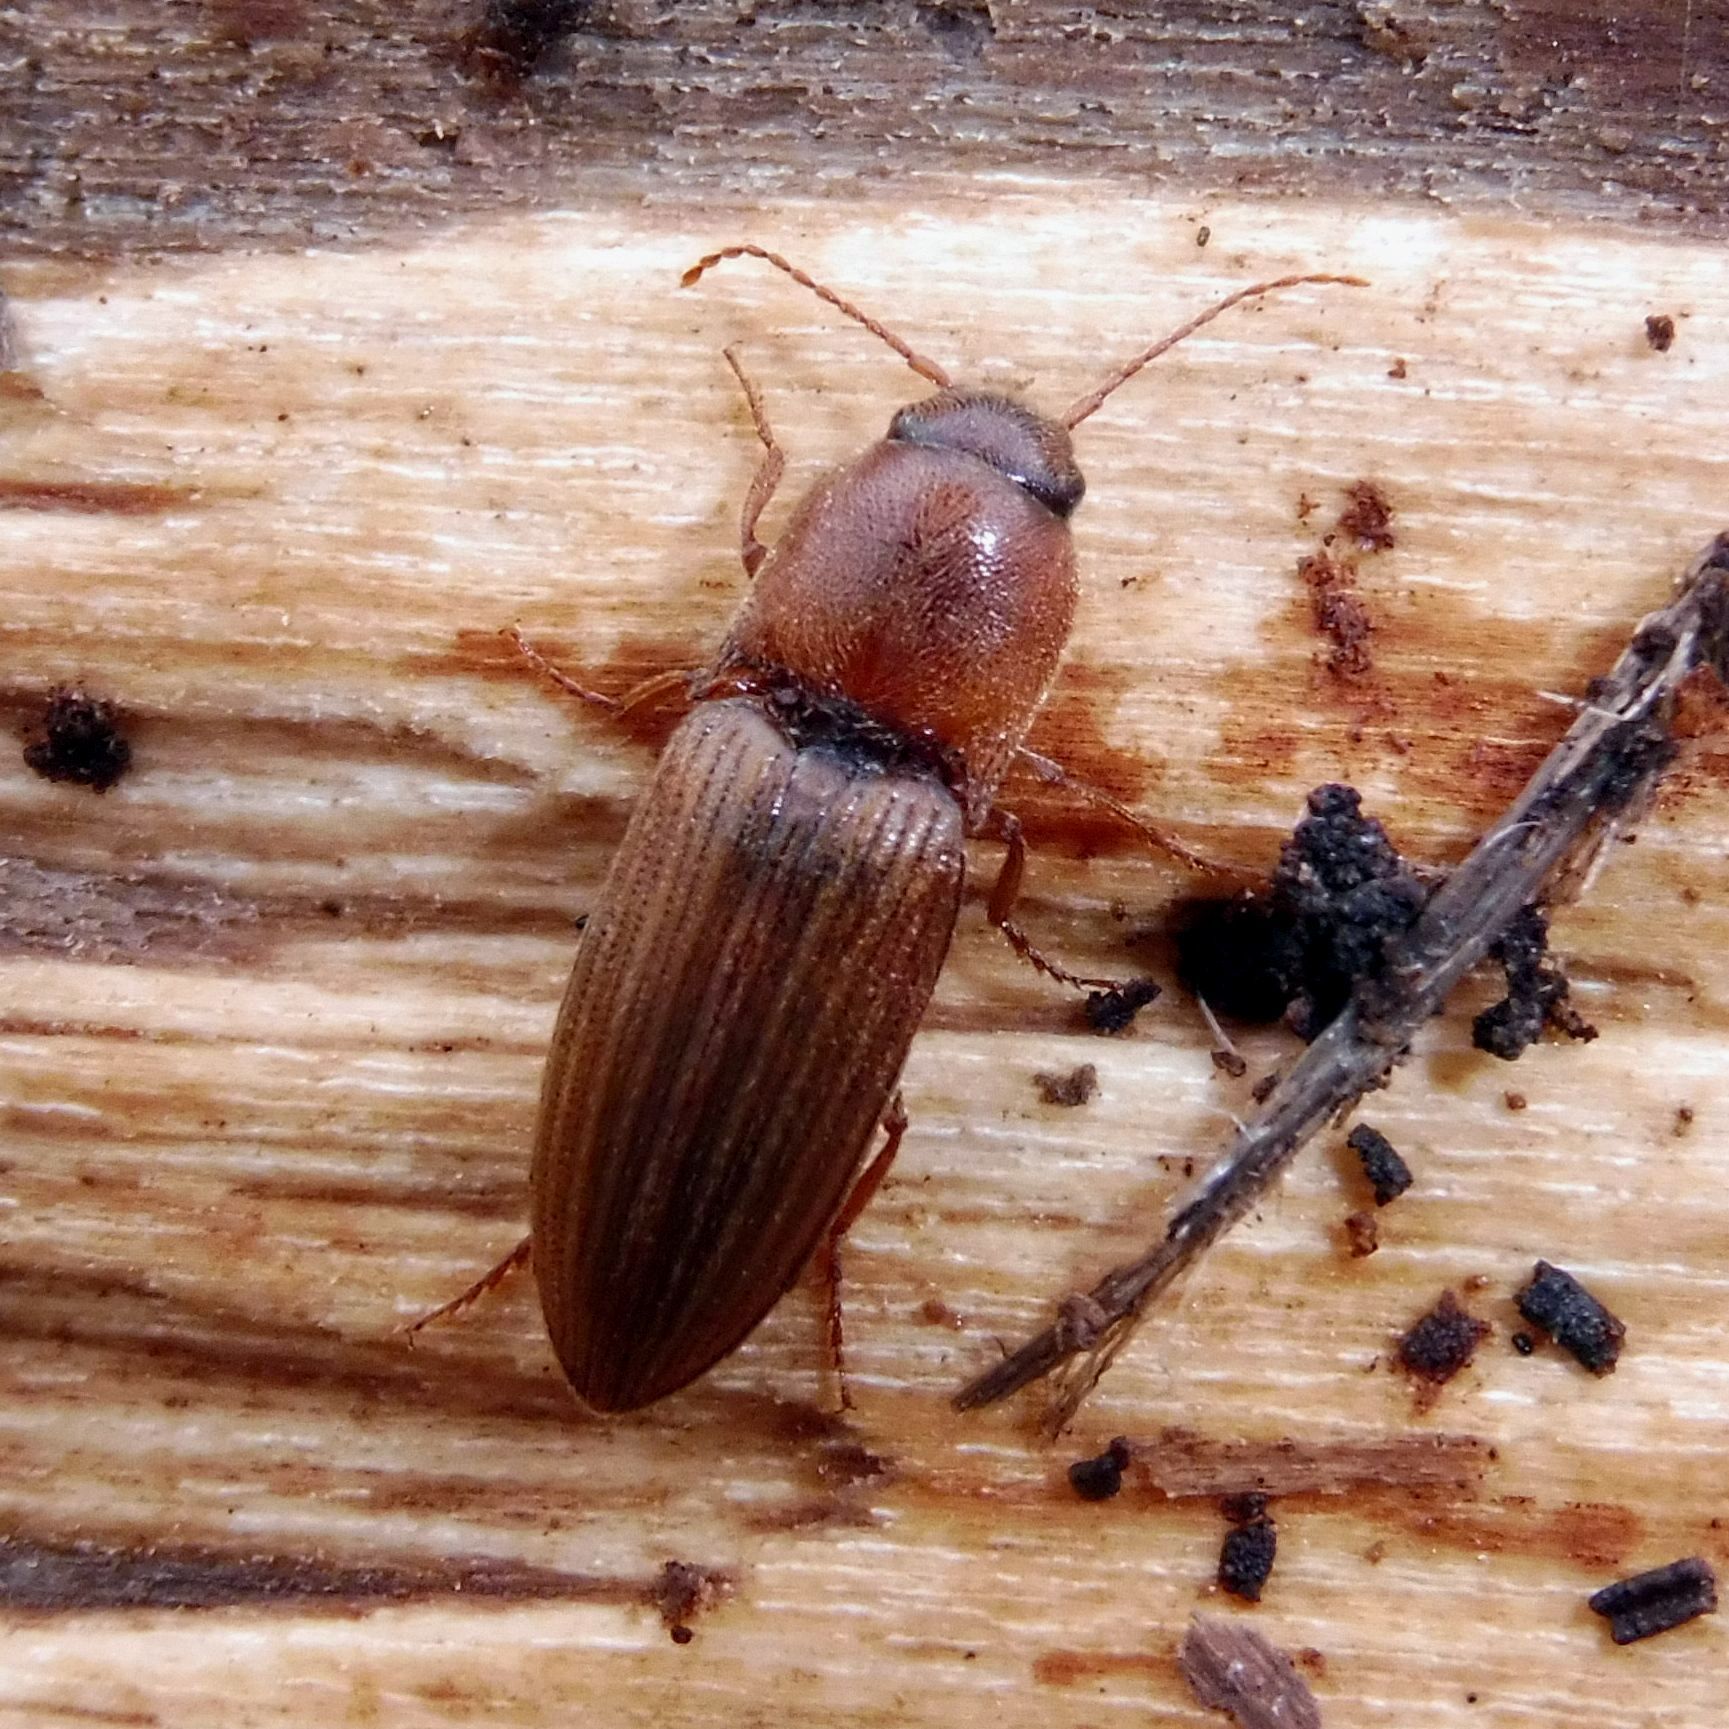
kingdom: Animalia
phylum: Arthropoda
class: Insecta
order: Coleoptera
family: Elateridae
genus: Agriotes
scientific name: Agriotes lineatus
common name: Lined click beetle
